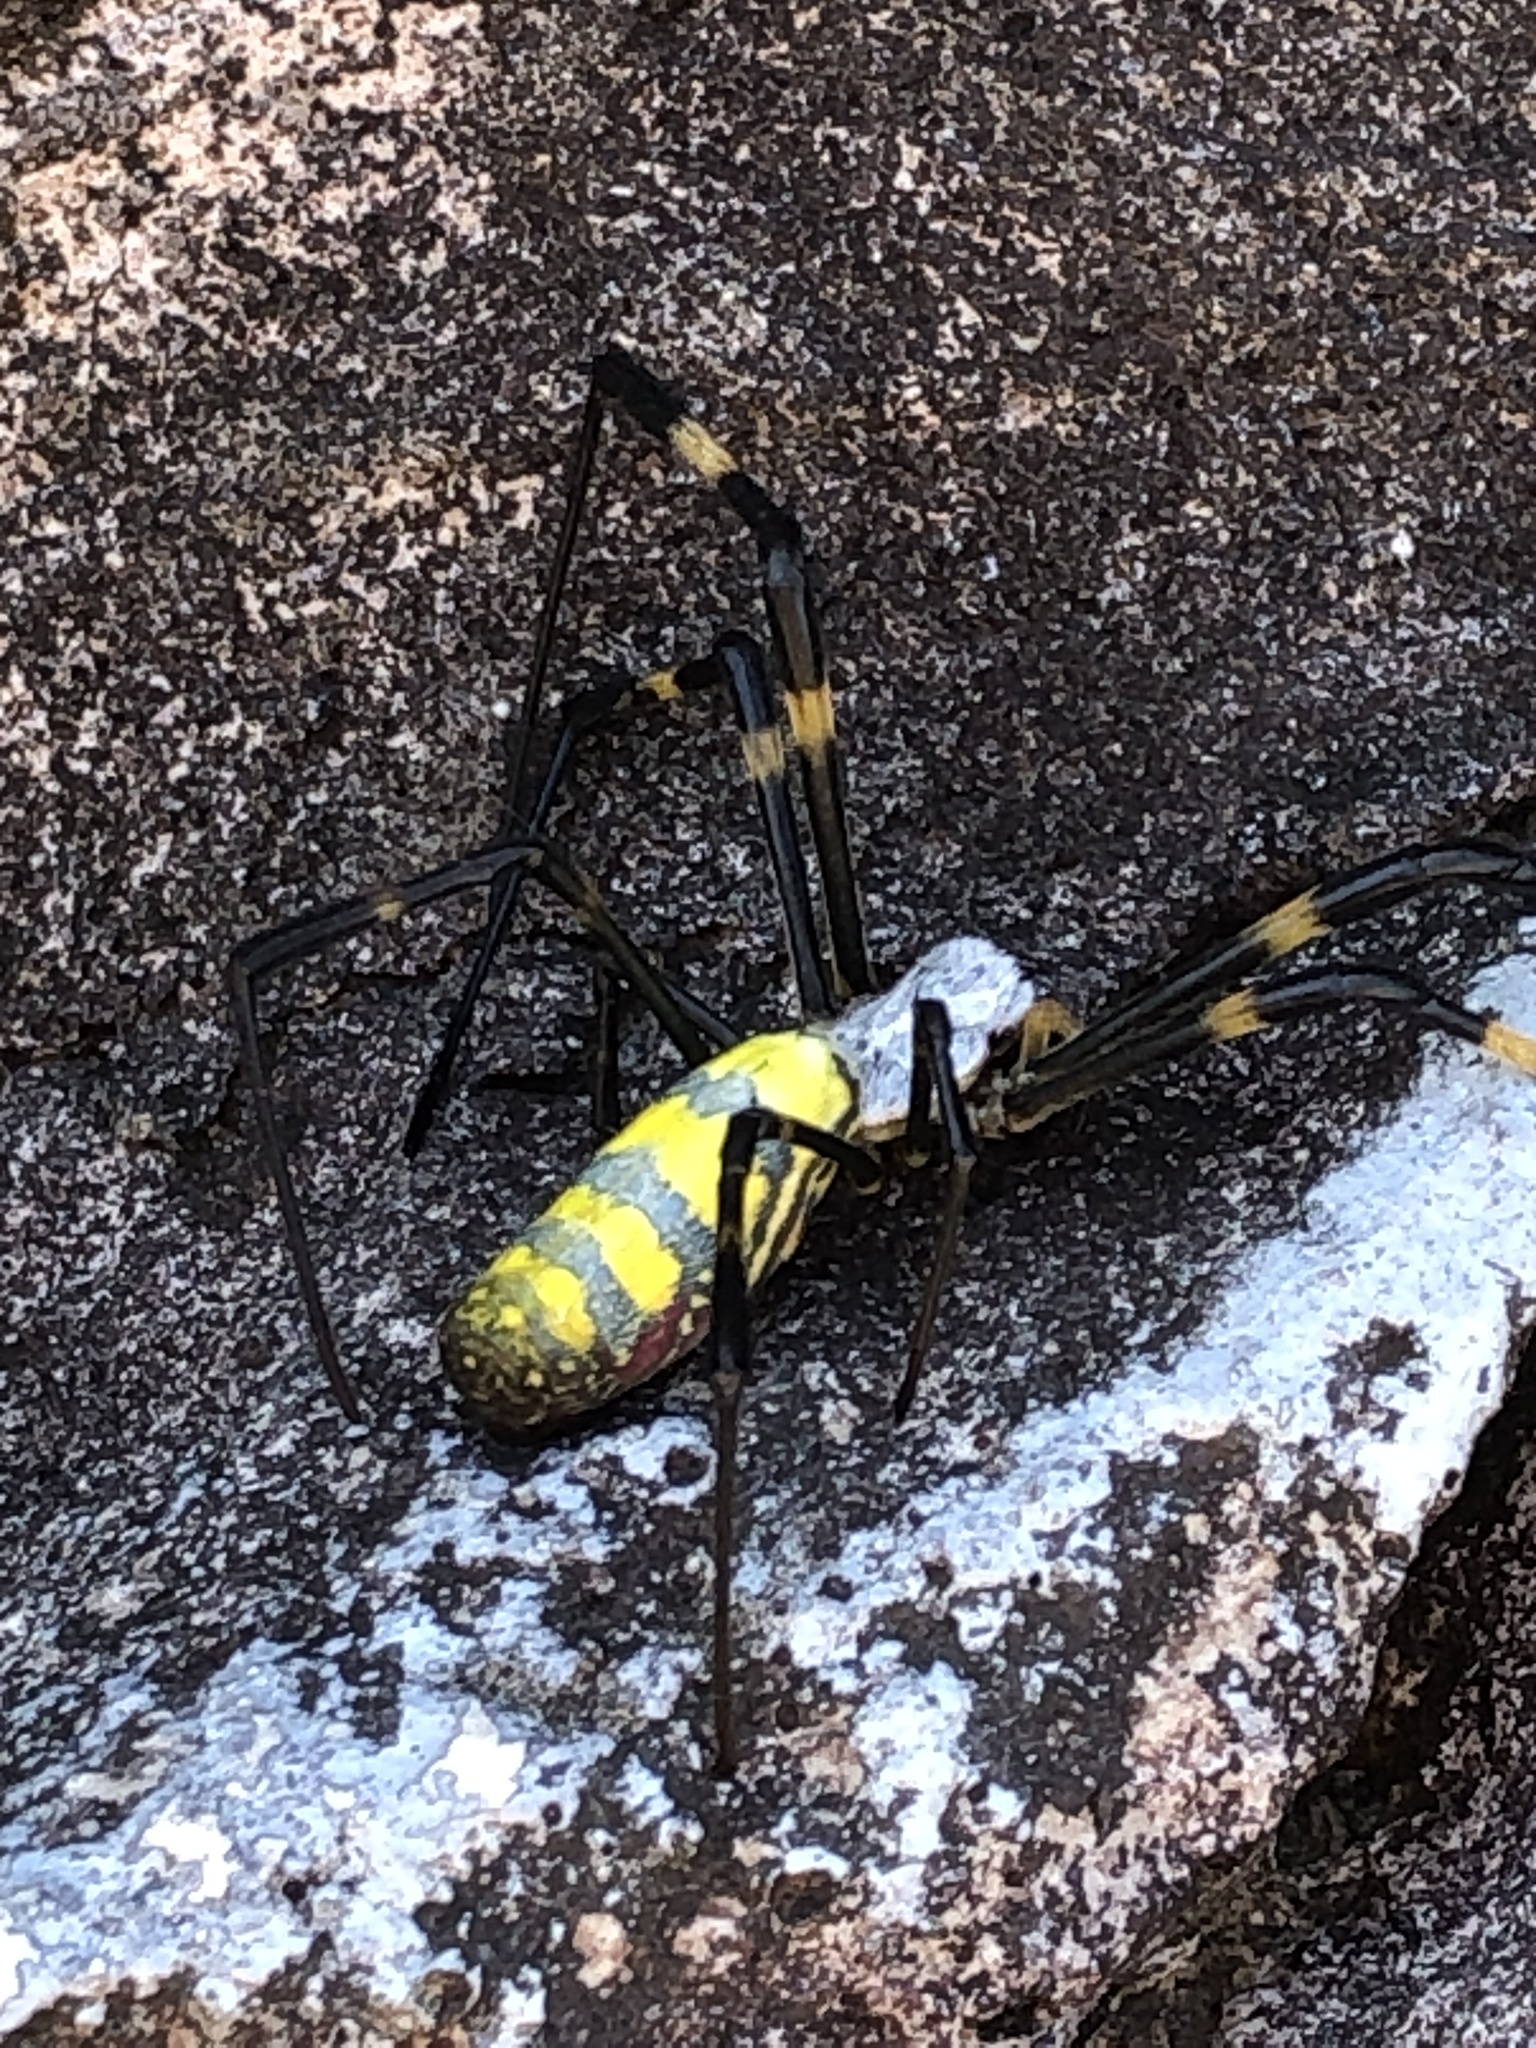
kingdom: Animalia
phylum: Arthropoda
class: Arachnida
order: Araneae
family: Araneidae
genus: Trichonephila
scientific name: Trichonephila clavata
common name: Jorō spider
